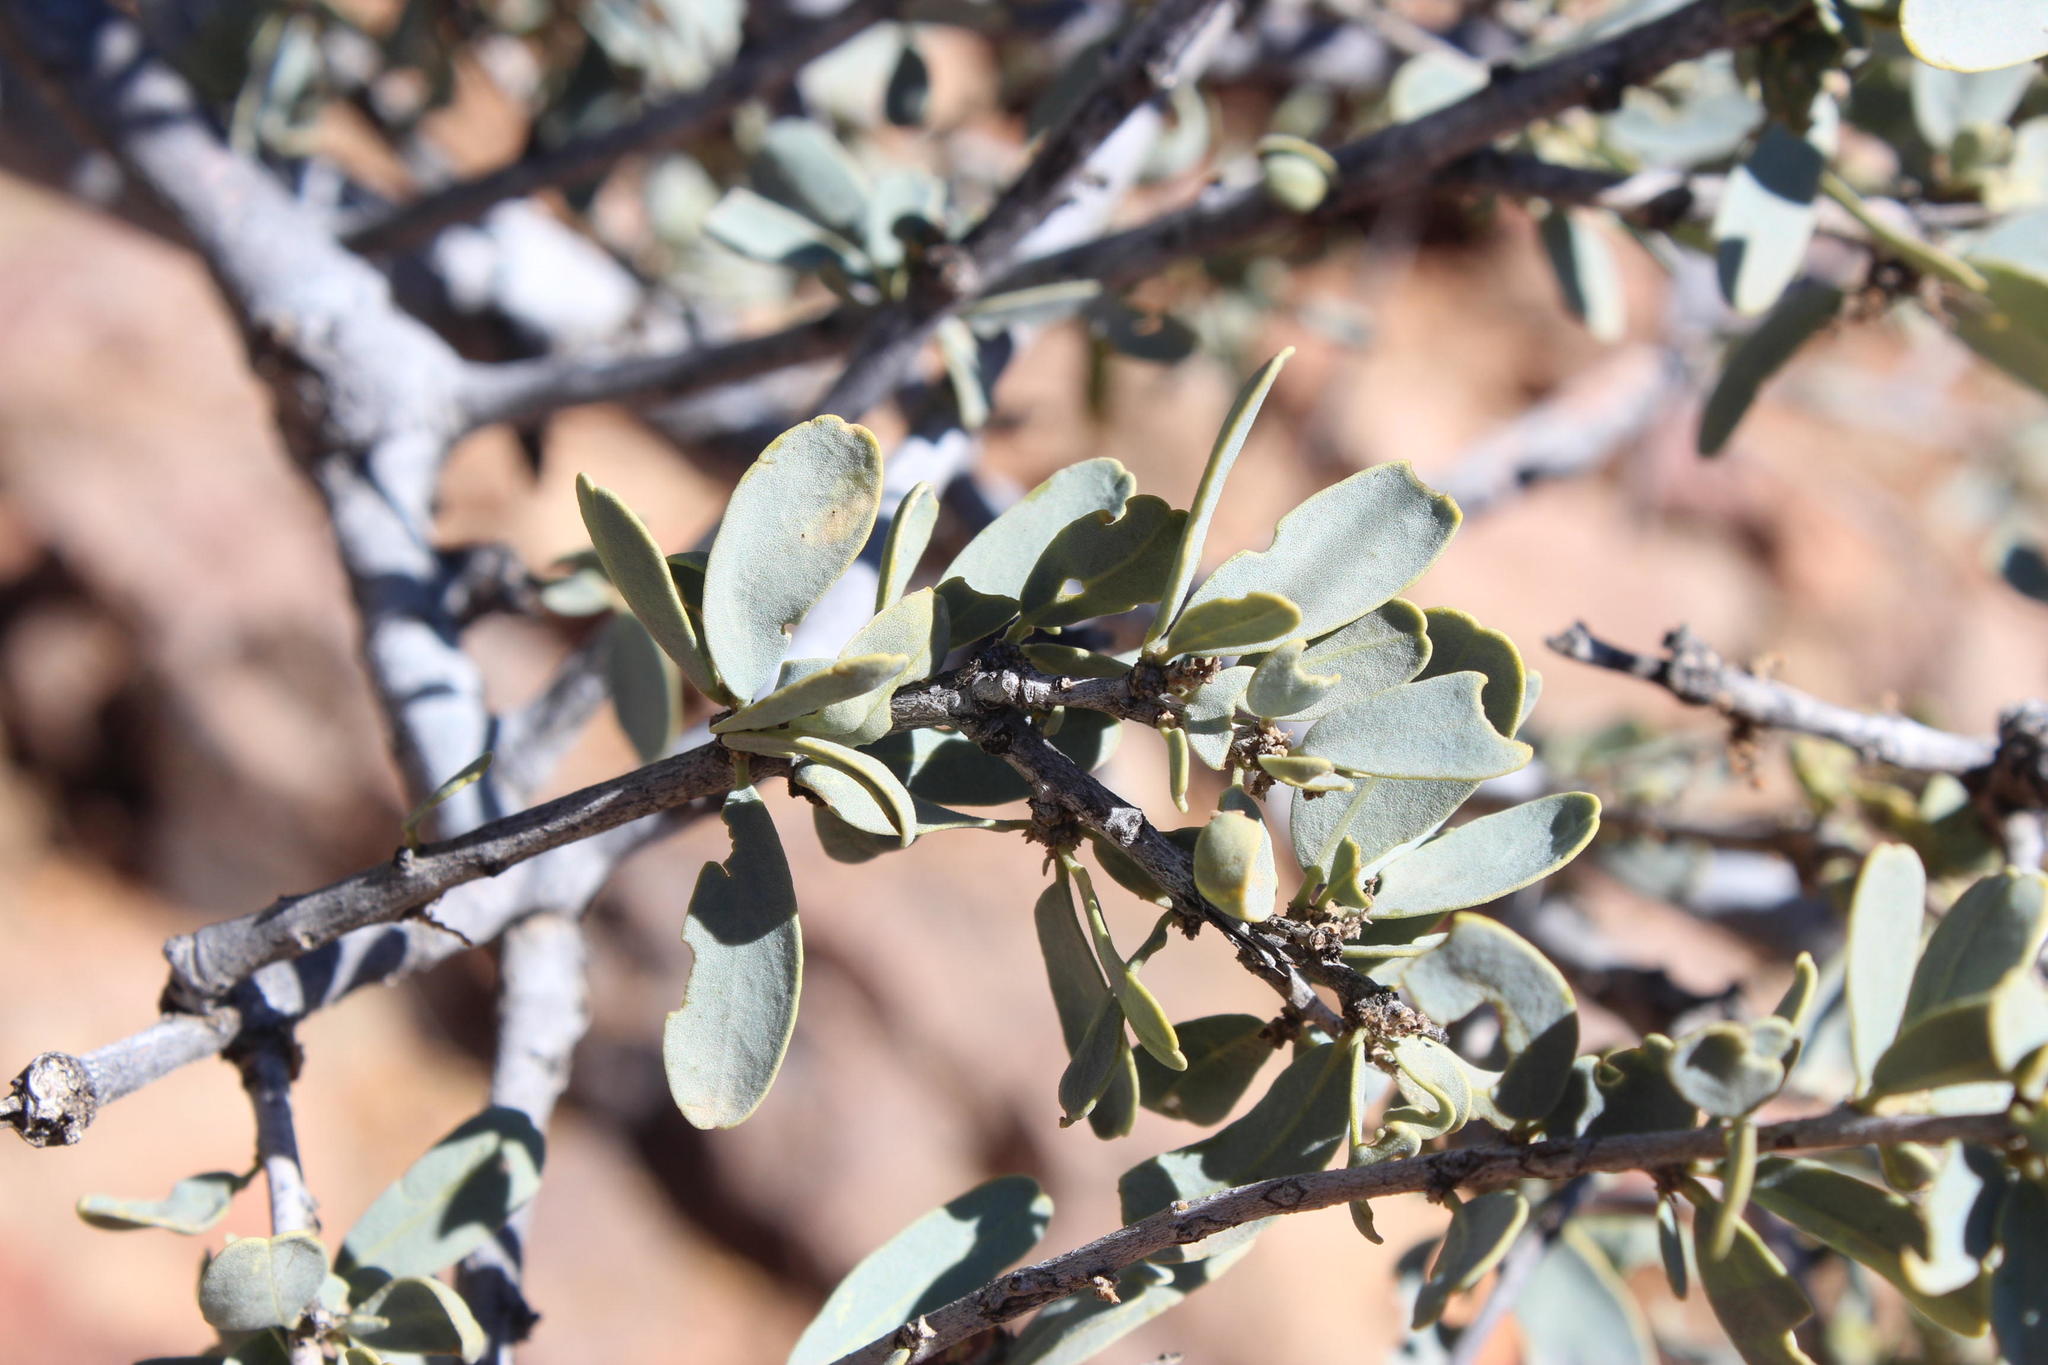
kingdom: Plantae
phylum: Tracheophyta
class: Magnoliopsida
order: Brassicales
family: Capparaceae
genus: Boscia
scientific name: Boscia albitrunca
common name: Caper bush
